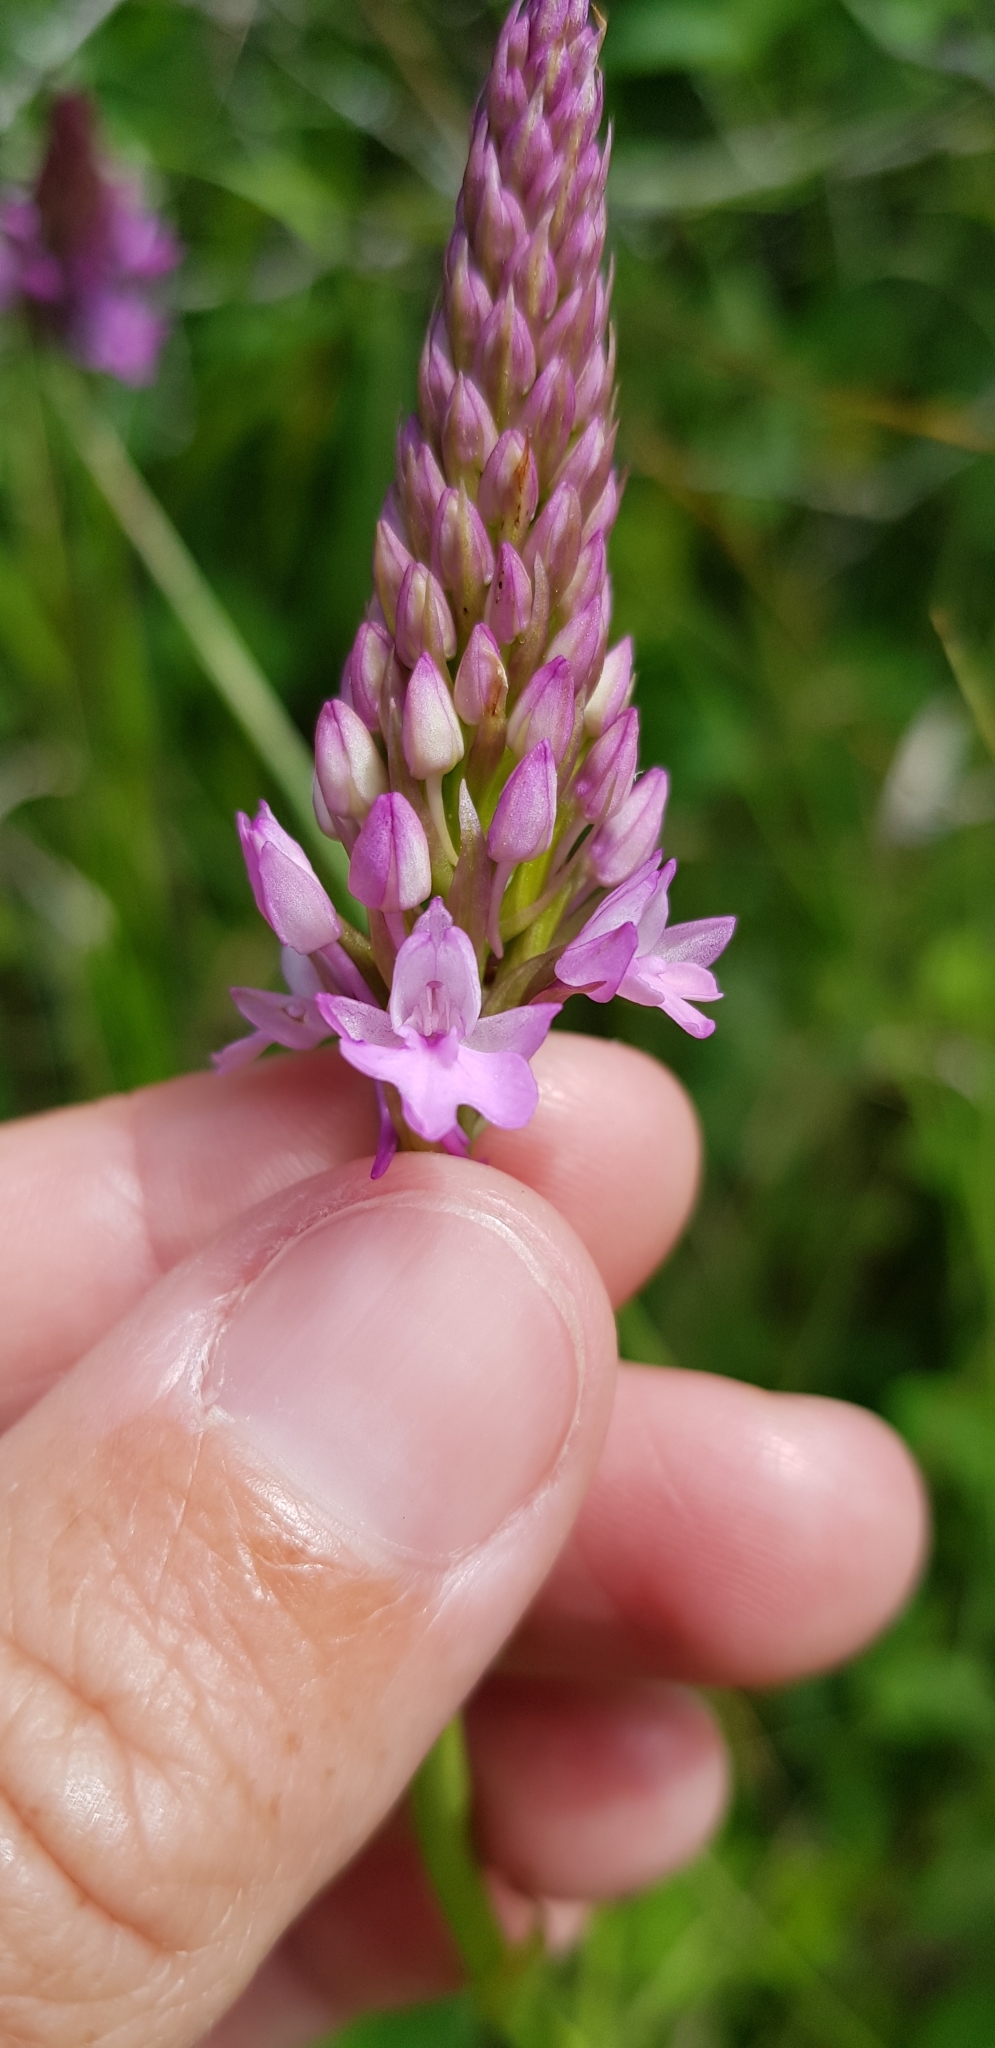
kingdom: Plantae
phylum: Tracheophyta
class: Liliopsida
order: Asparagales
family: Orchidaceae
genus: Anacamptis
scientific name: Anacamptis pyramidalis
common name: Pyramidal orchid
